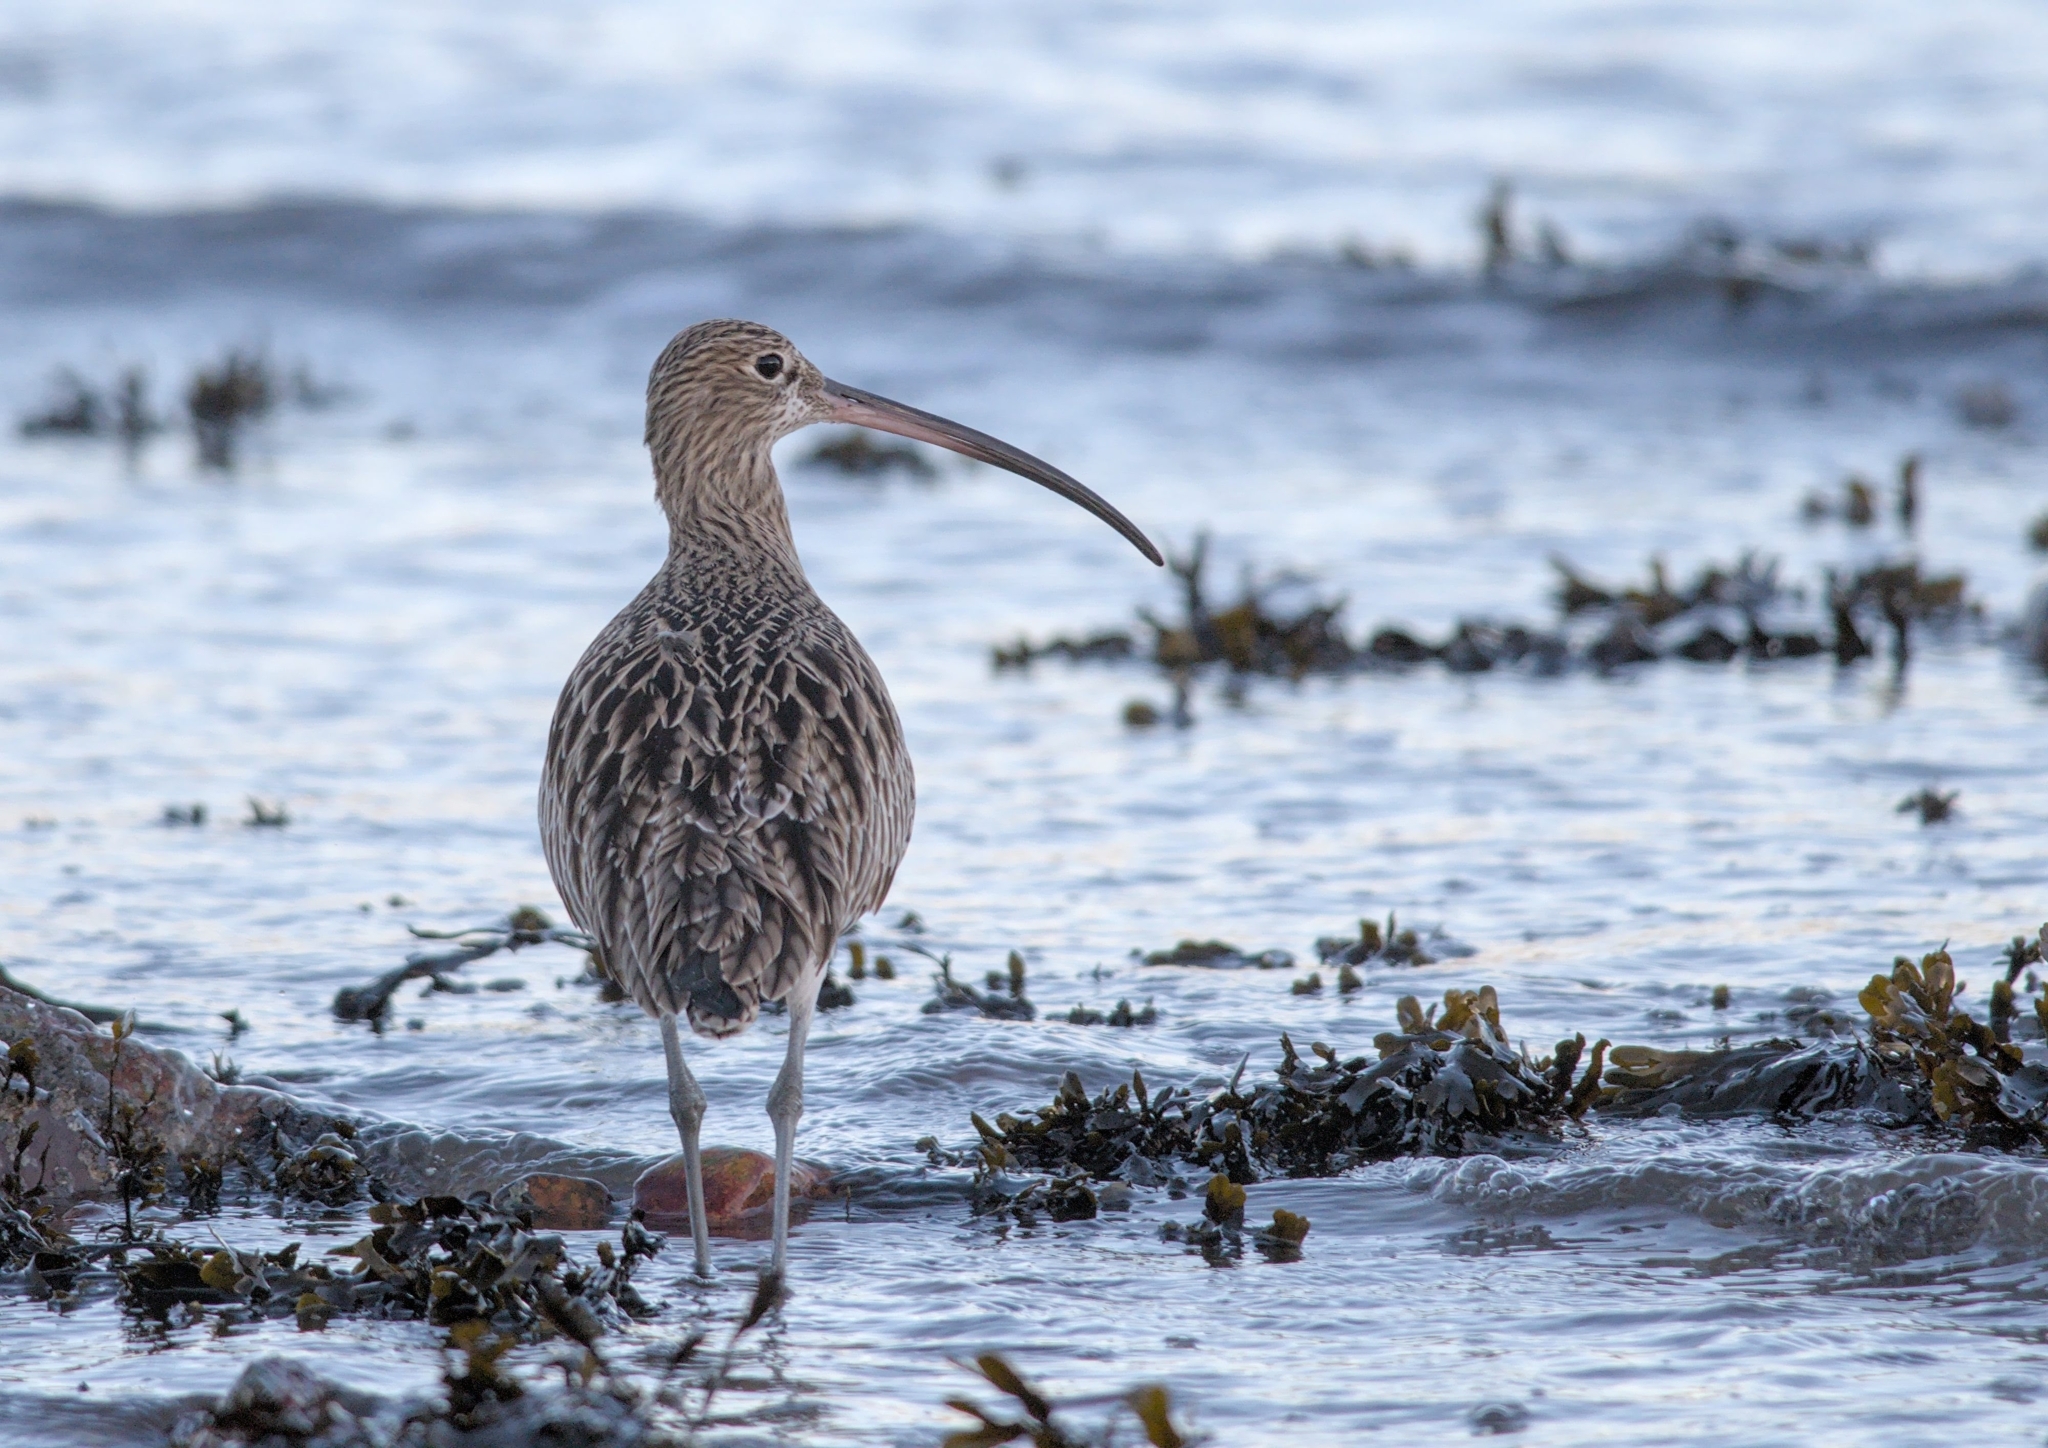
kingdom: Animalia
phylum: Chordata
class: Aves
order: Charadriiformes
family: Scolopacidae
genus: Numenius
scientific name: Numenius arquata
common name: Eurasian curlew
